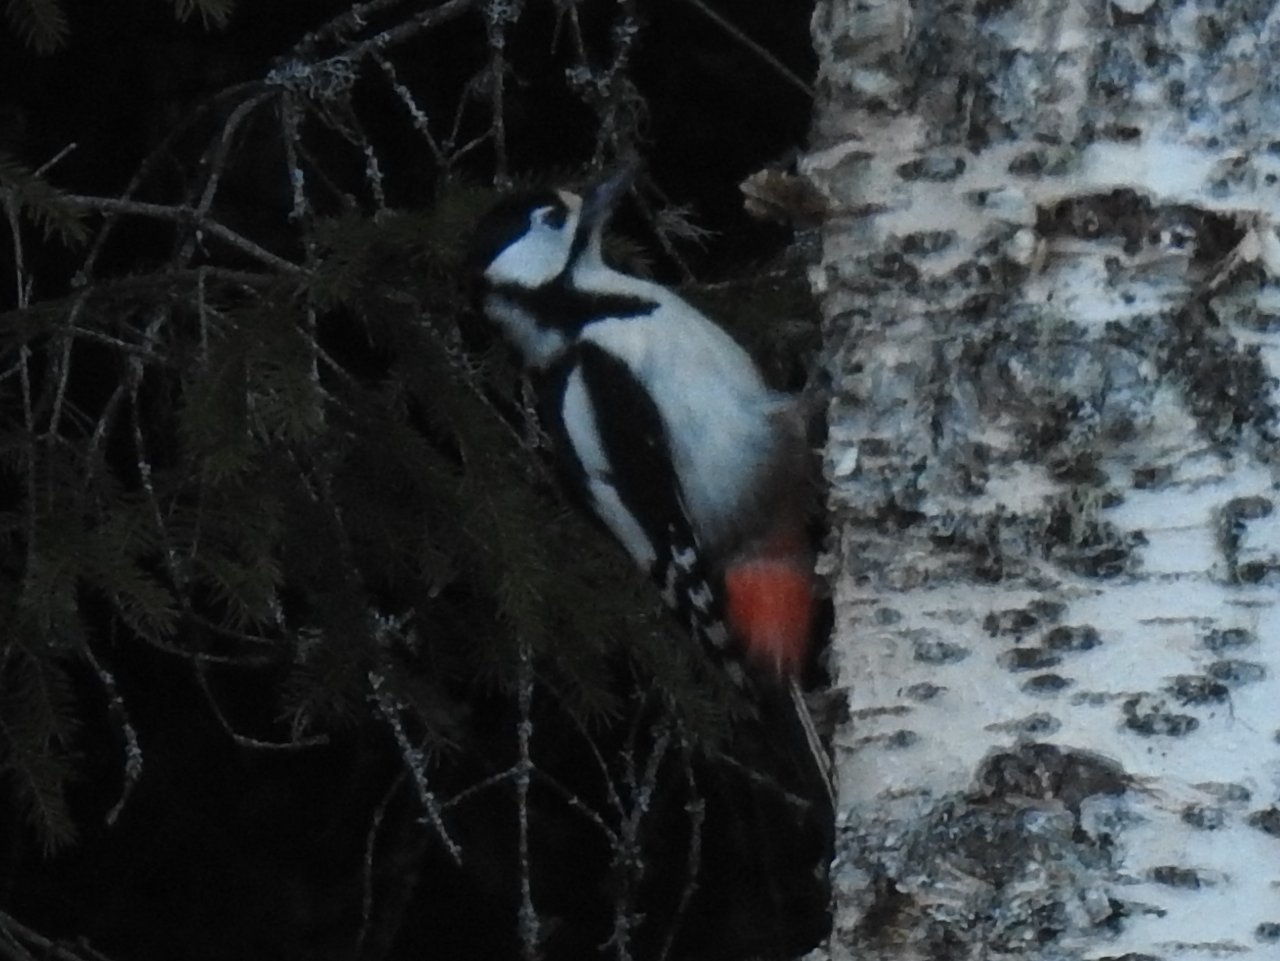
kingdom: Animalia
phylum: Chordata
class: Aves
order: Piciformes
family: Picidae
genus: Dendrocopos
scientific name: Dendrocopos major
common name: Great spotted woodpecker
